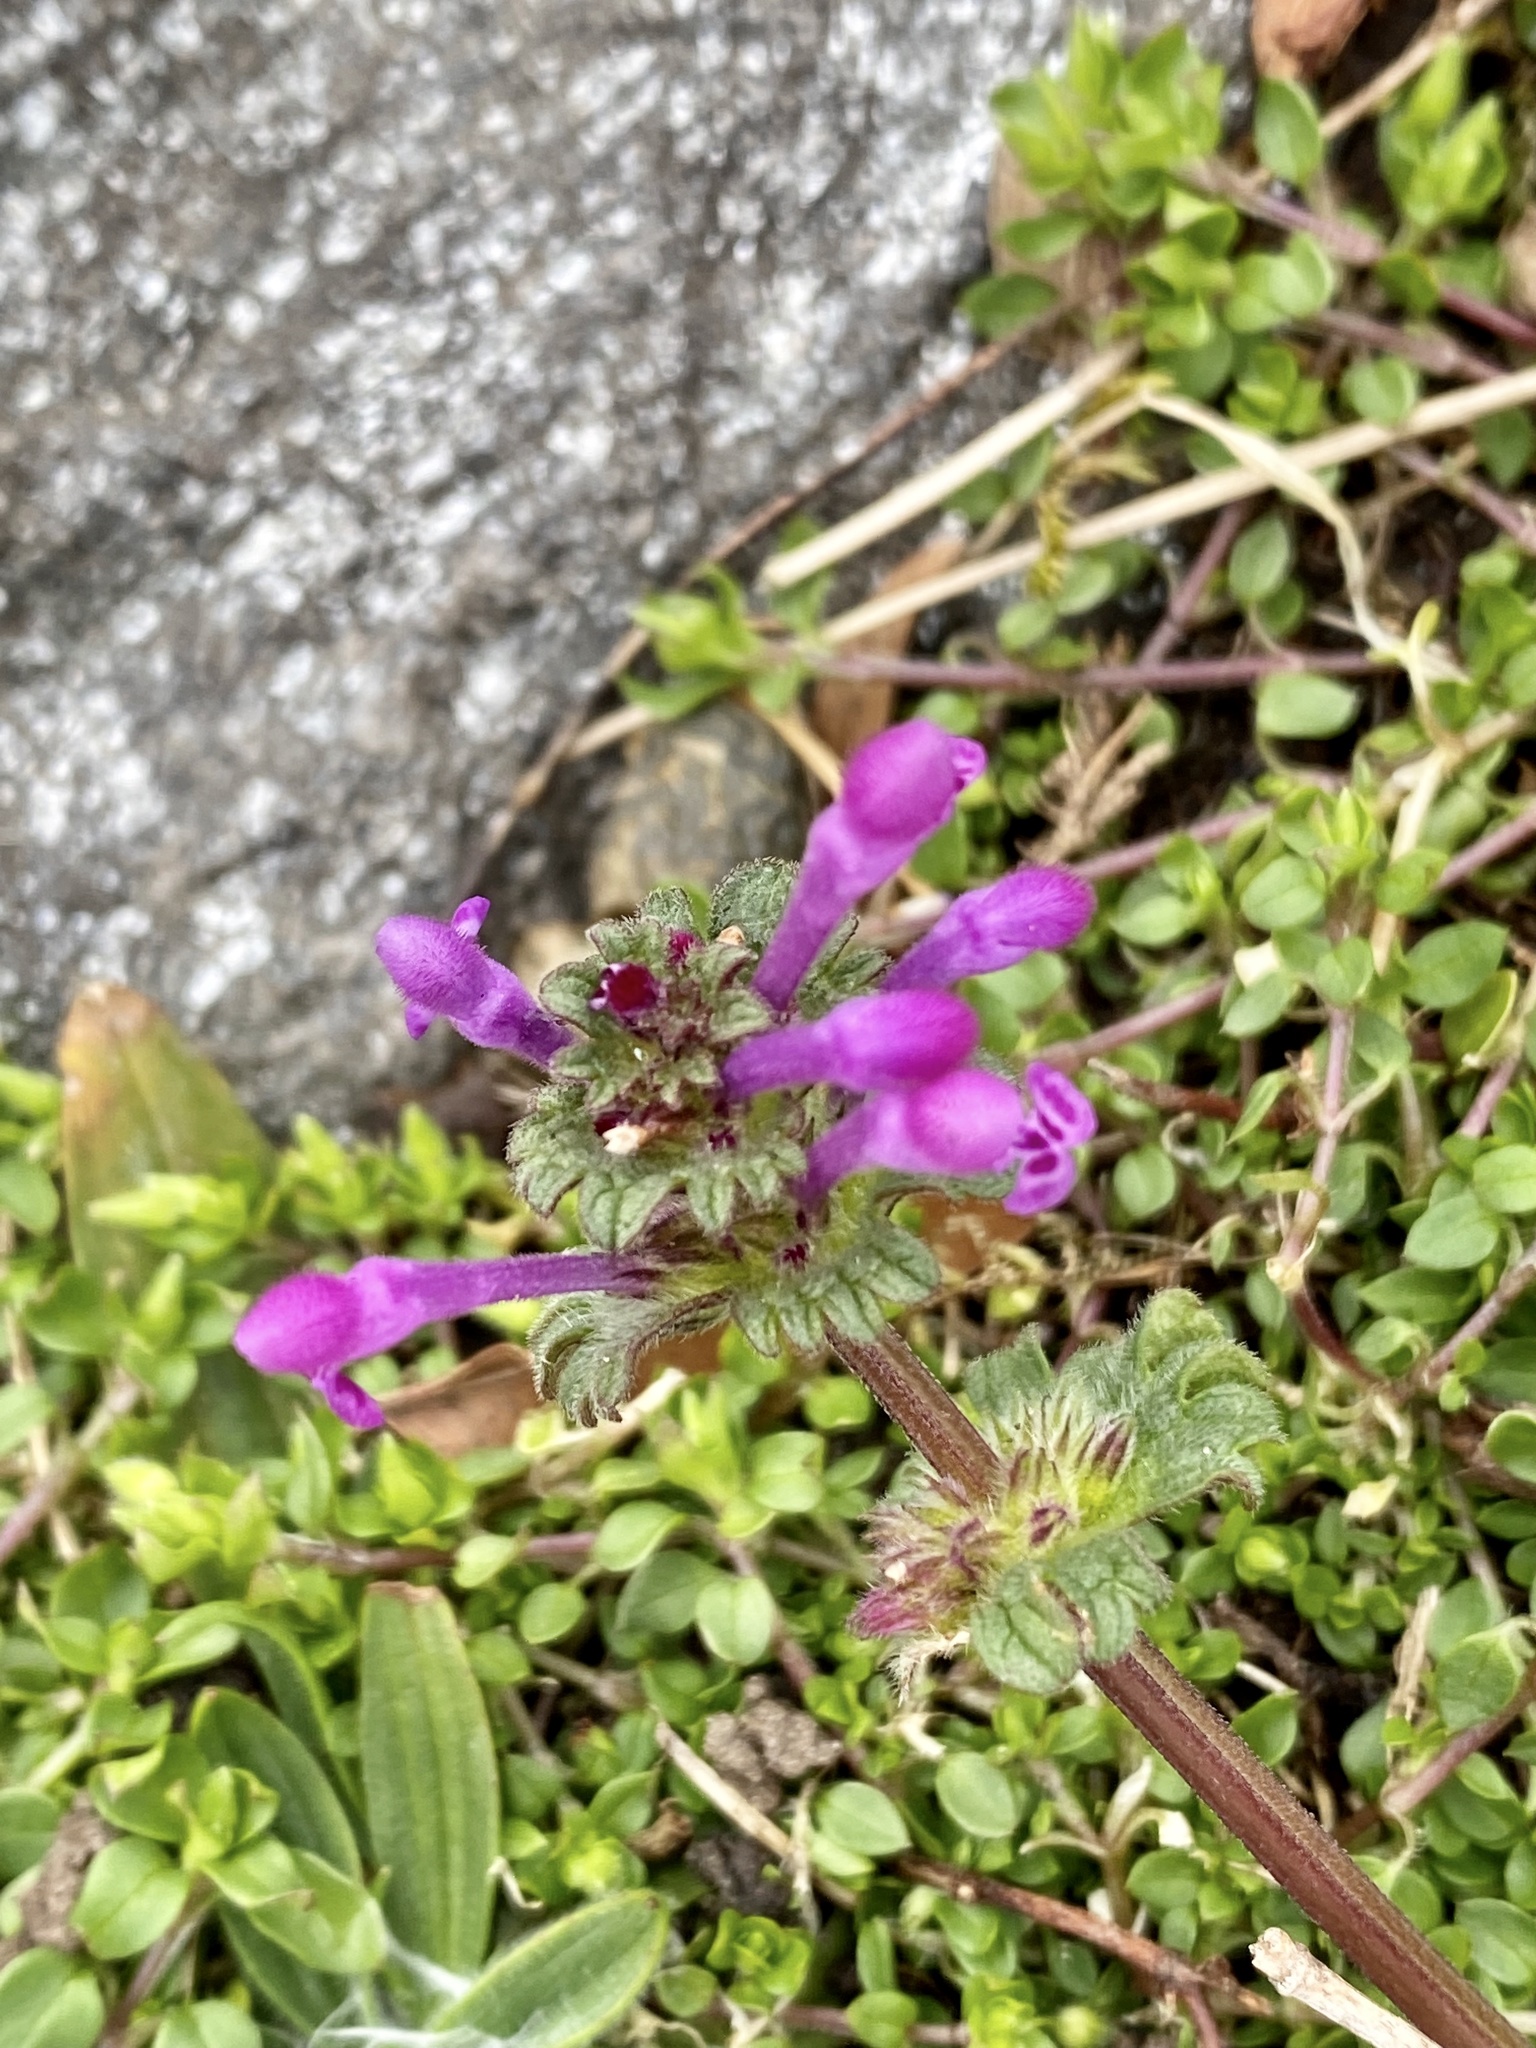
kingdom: Plantae
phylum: Tracheophyta
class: Magnoliopsida
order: Lamiales
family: Lamiaceae
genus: Lamium
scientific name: Lamium amplexicaule
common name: Henbit dead-nettle
